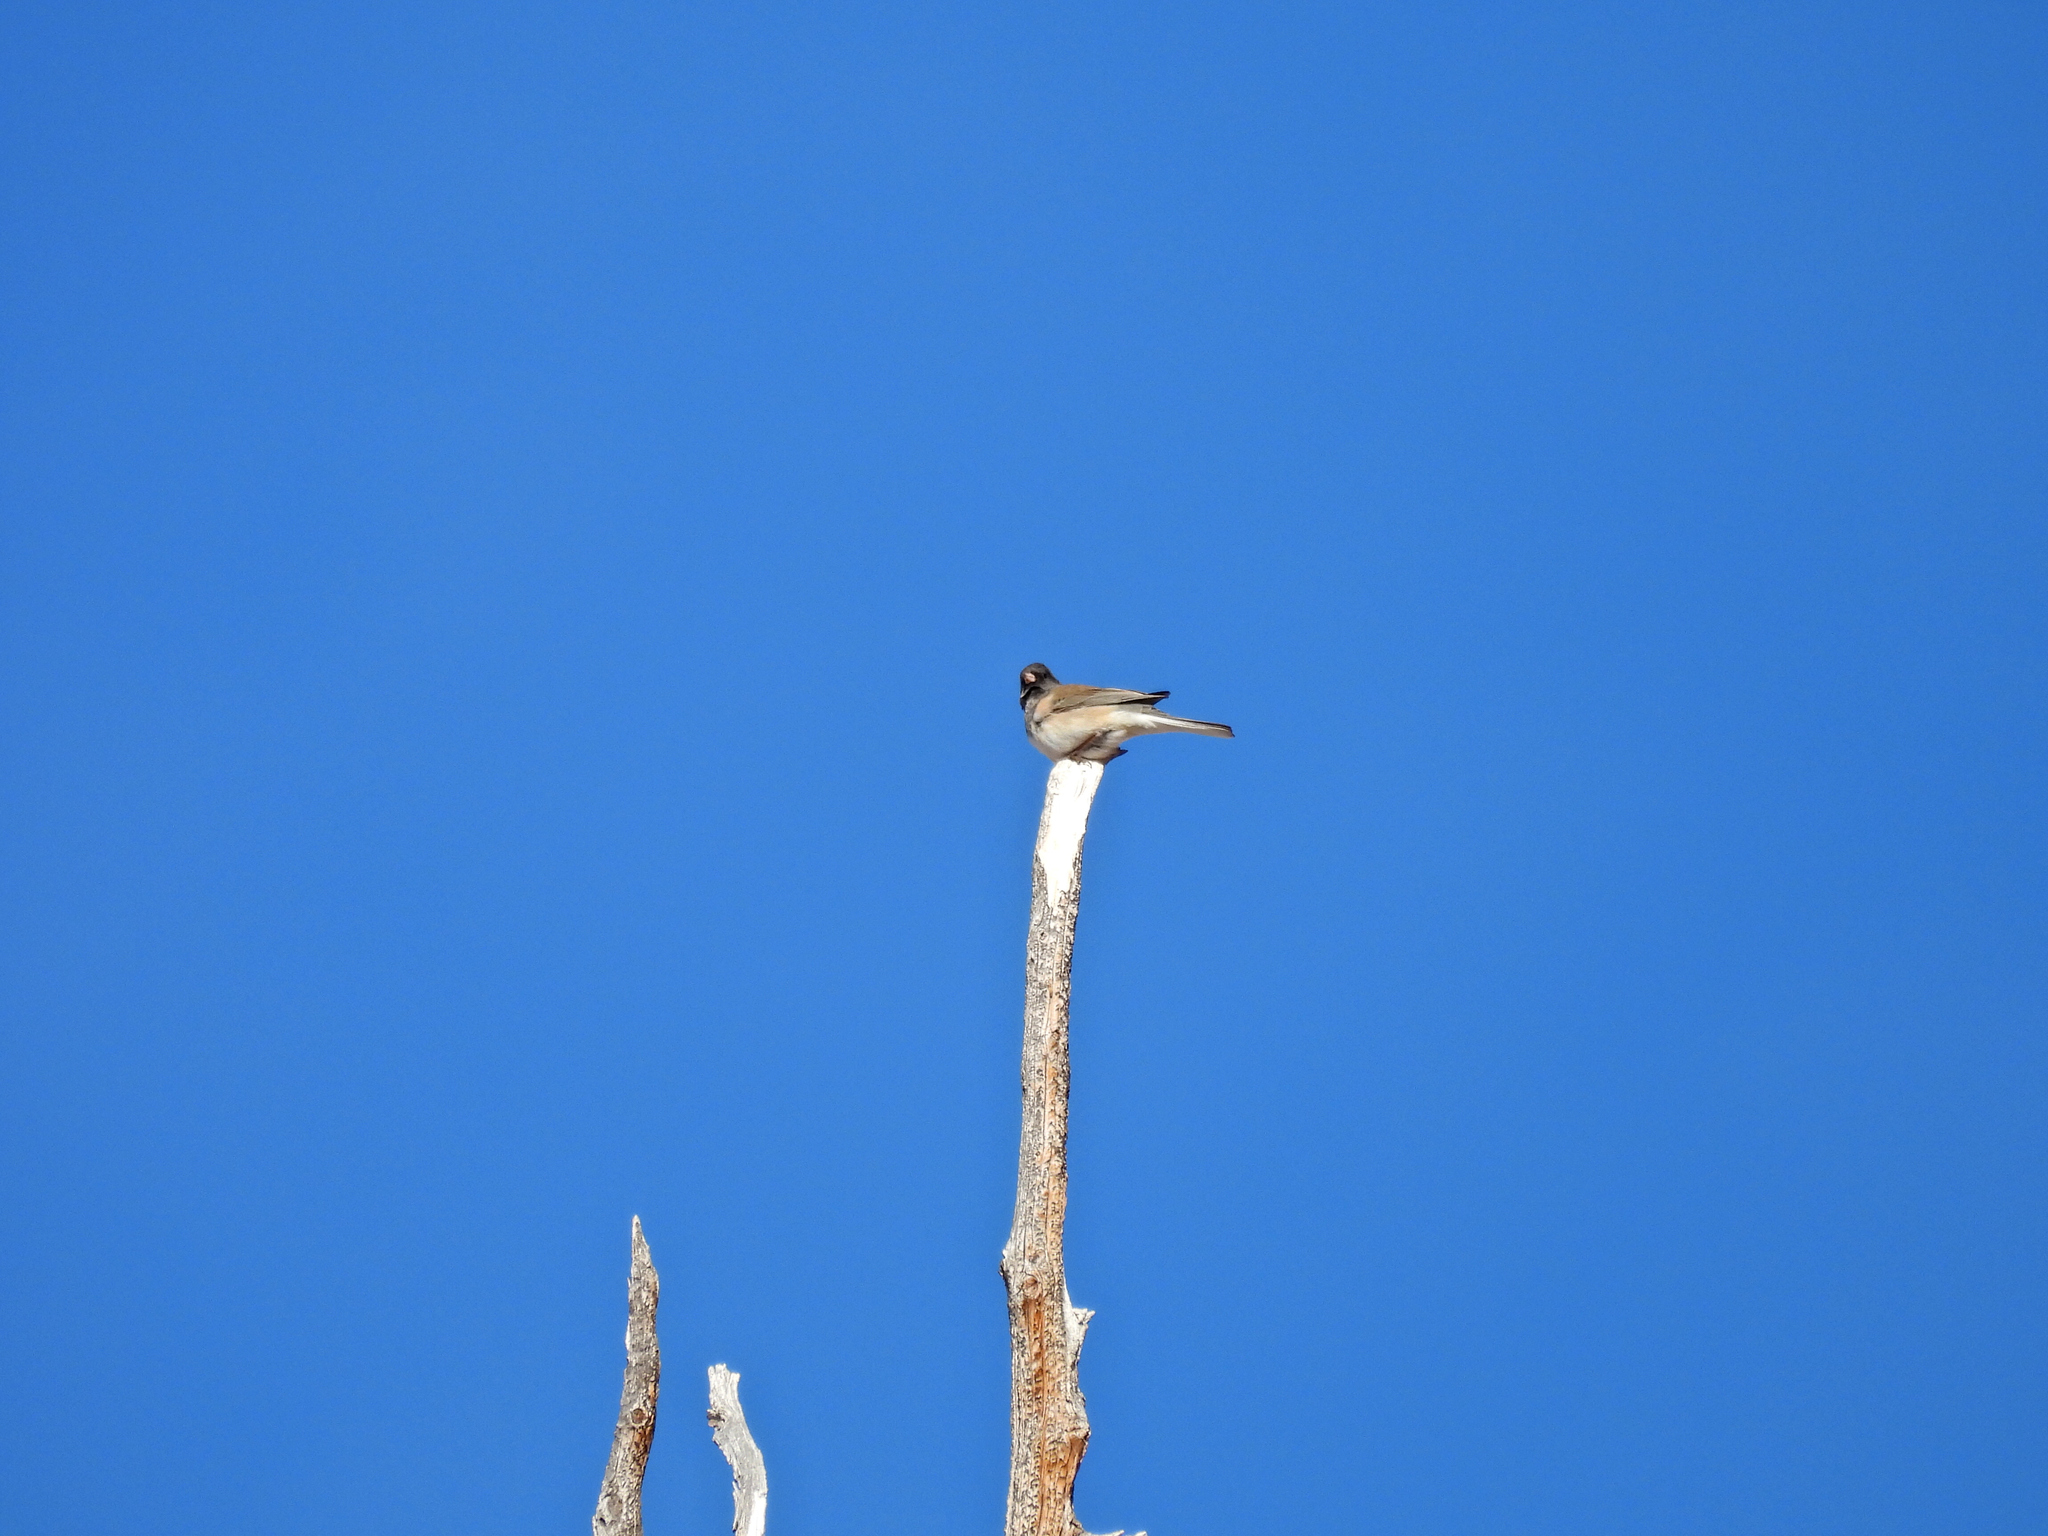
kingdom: Animalia
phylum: Chordata
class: Aves
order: Passeriformes
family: Passerellidae
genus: Junco
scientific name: Junco hyemalis
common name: Dark-eyed junco
